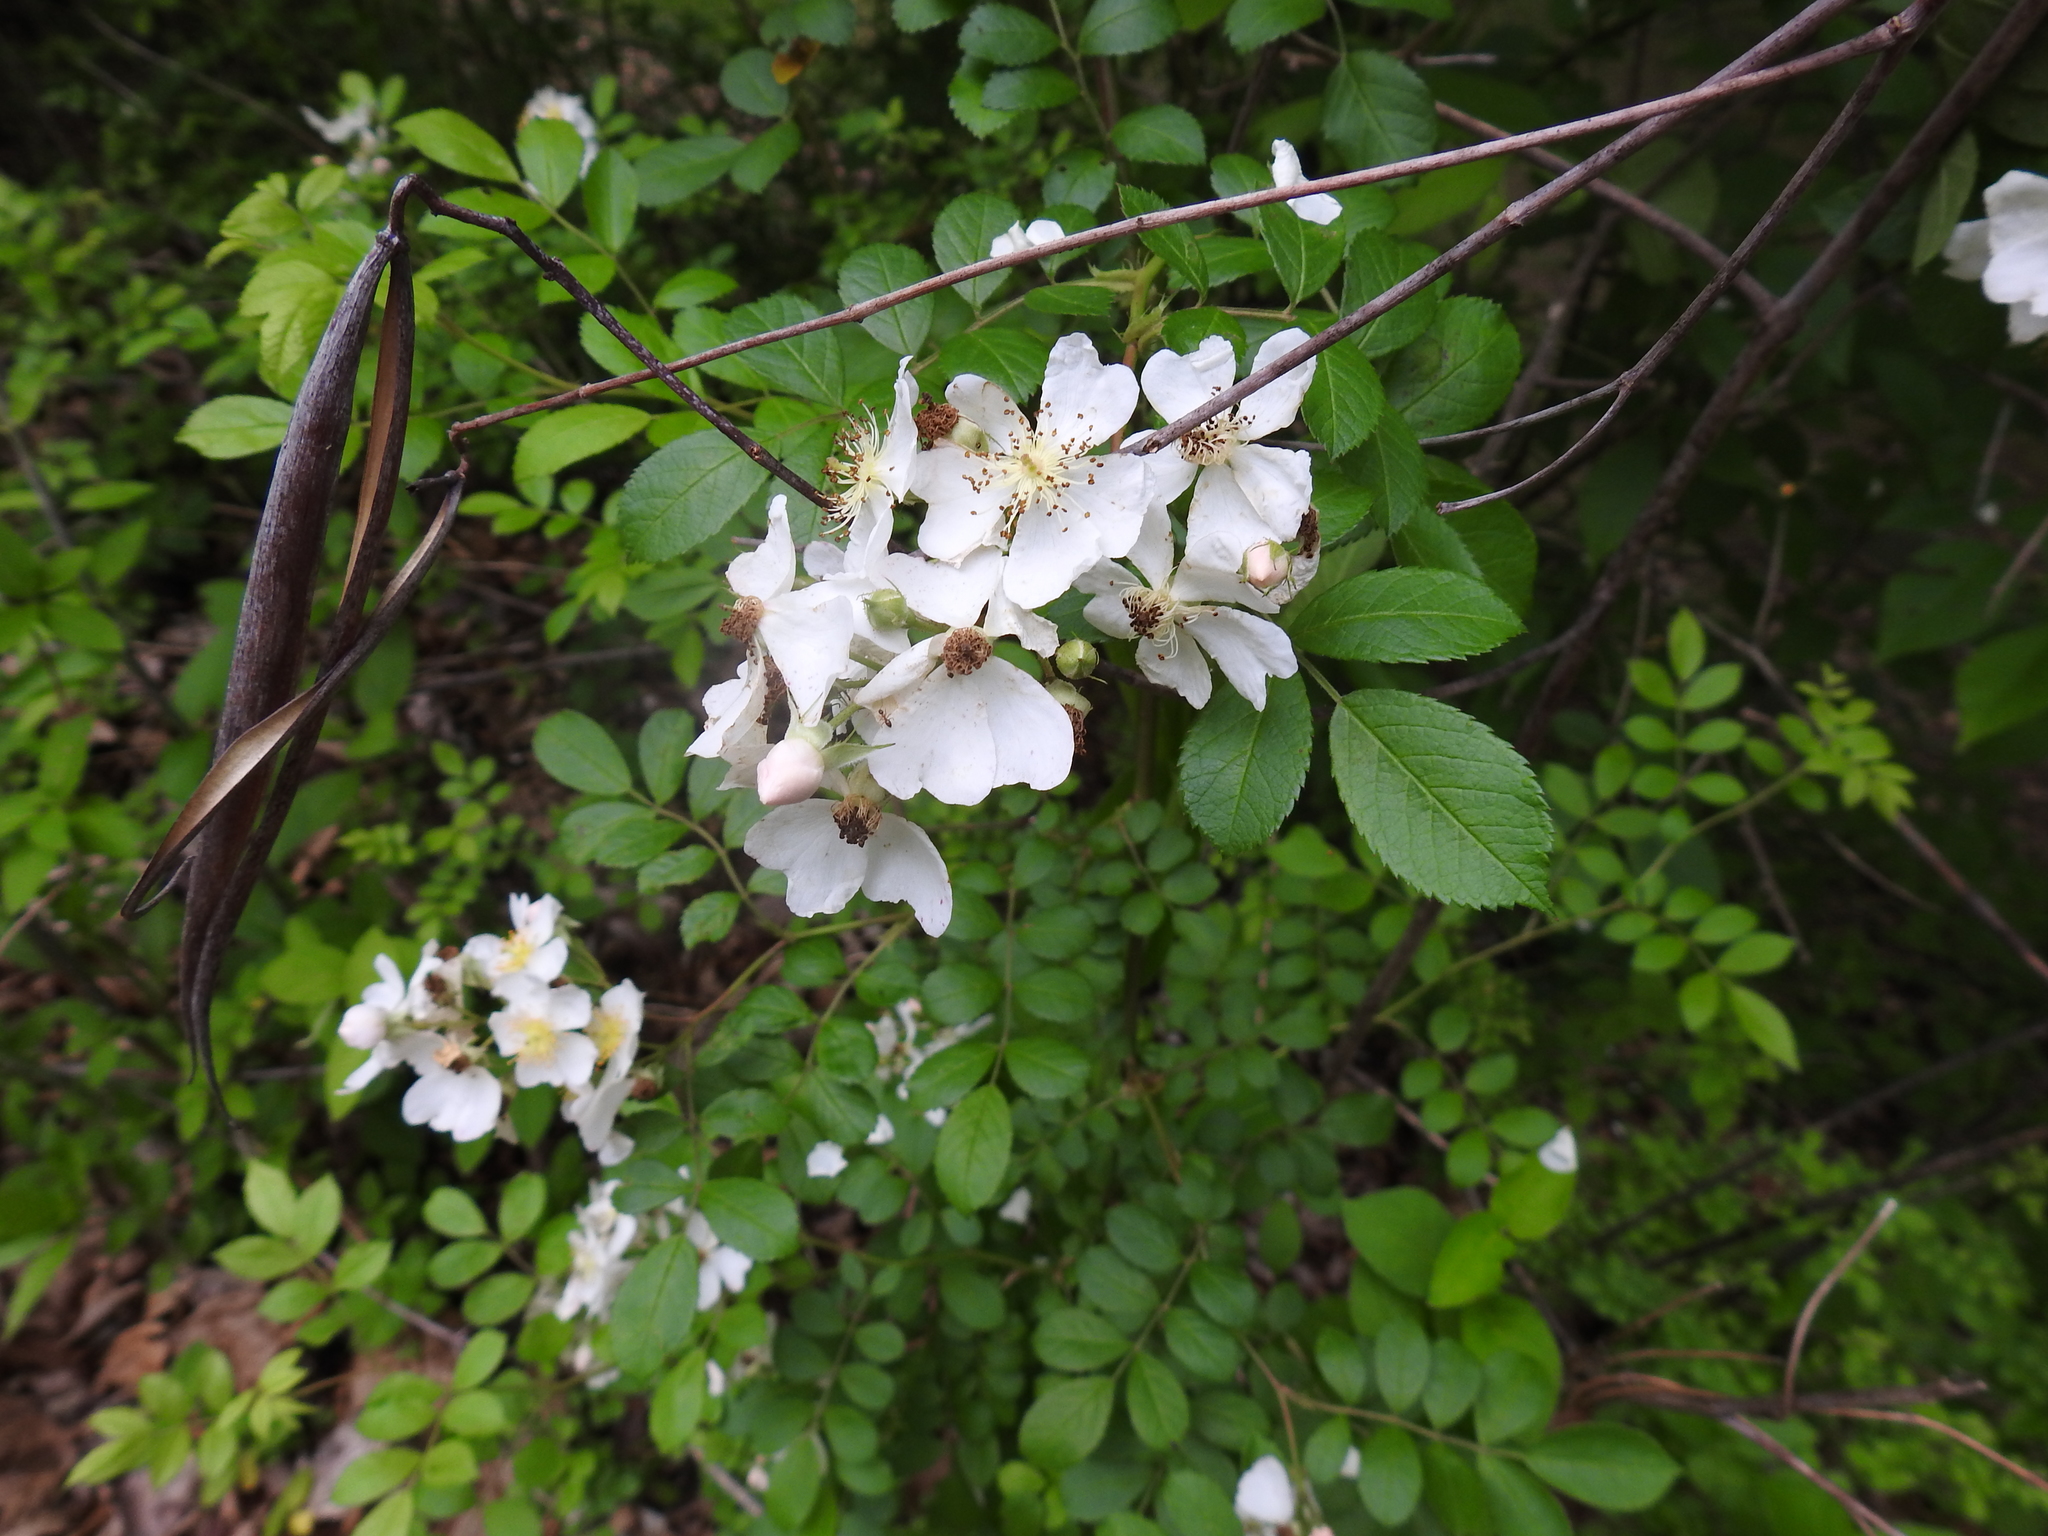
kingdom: Plantae
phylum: Tracheophyta
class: Magnoliopsida
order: Rosales
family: Rosaceae
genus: Rosa
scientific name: Rosa multiflora
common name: Multiflora rose
